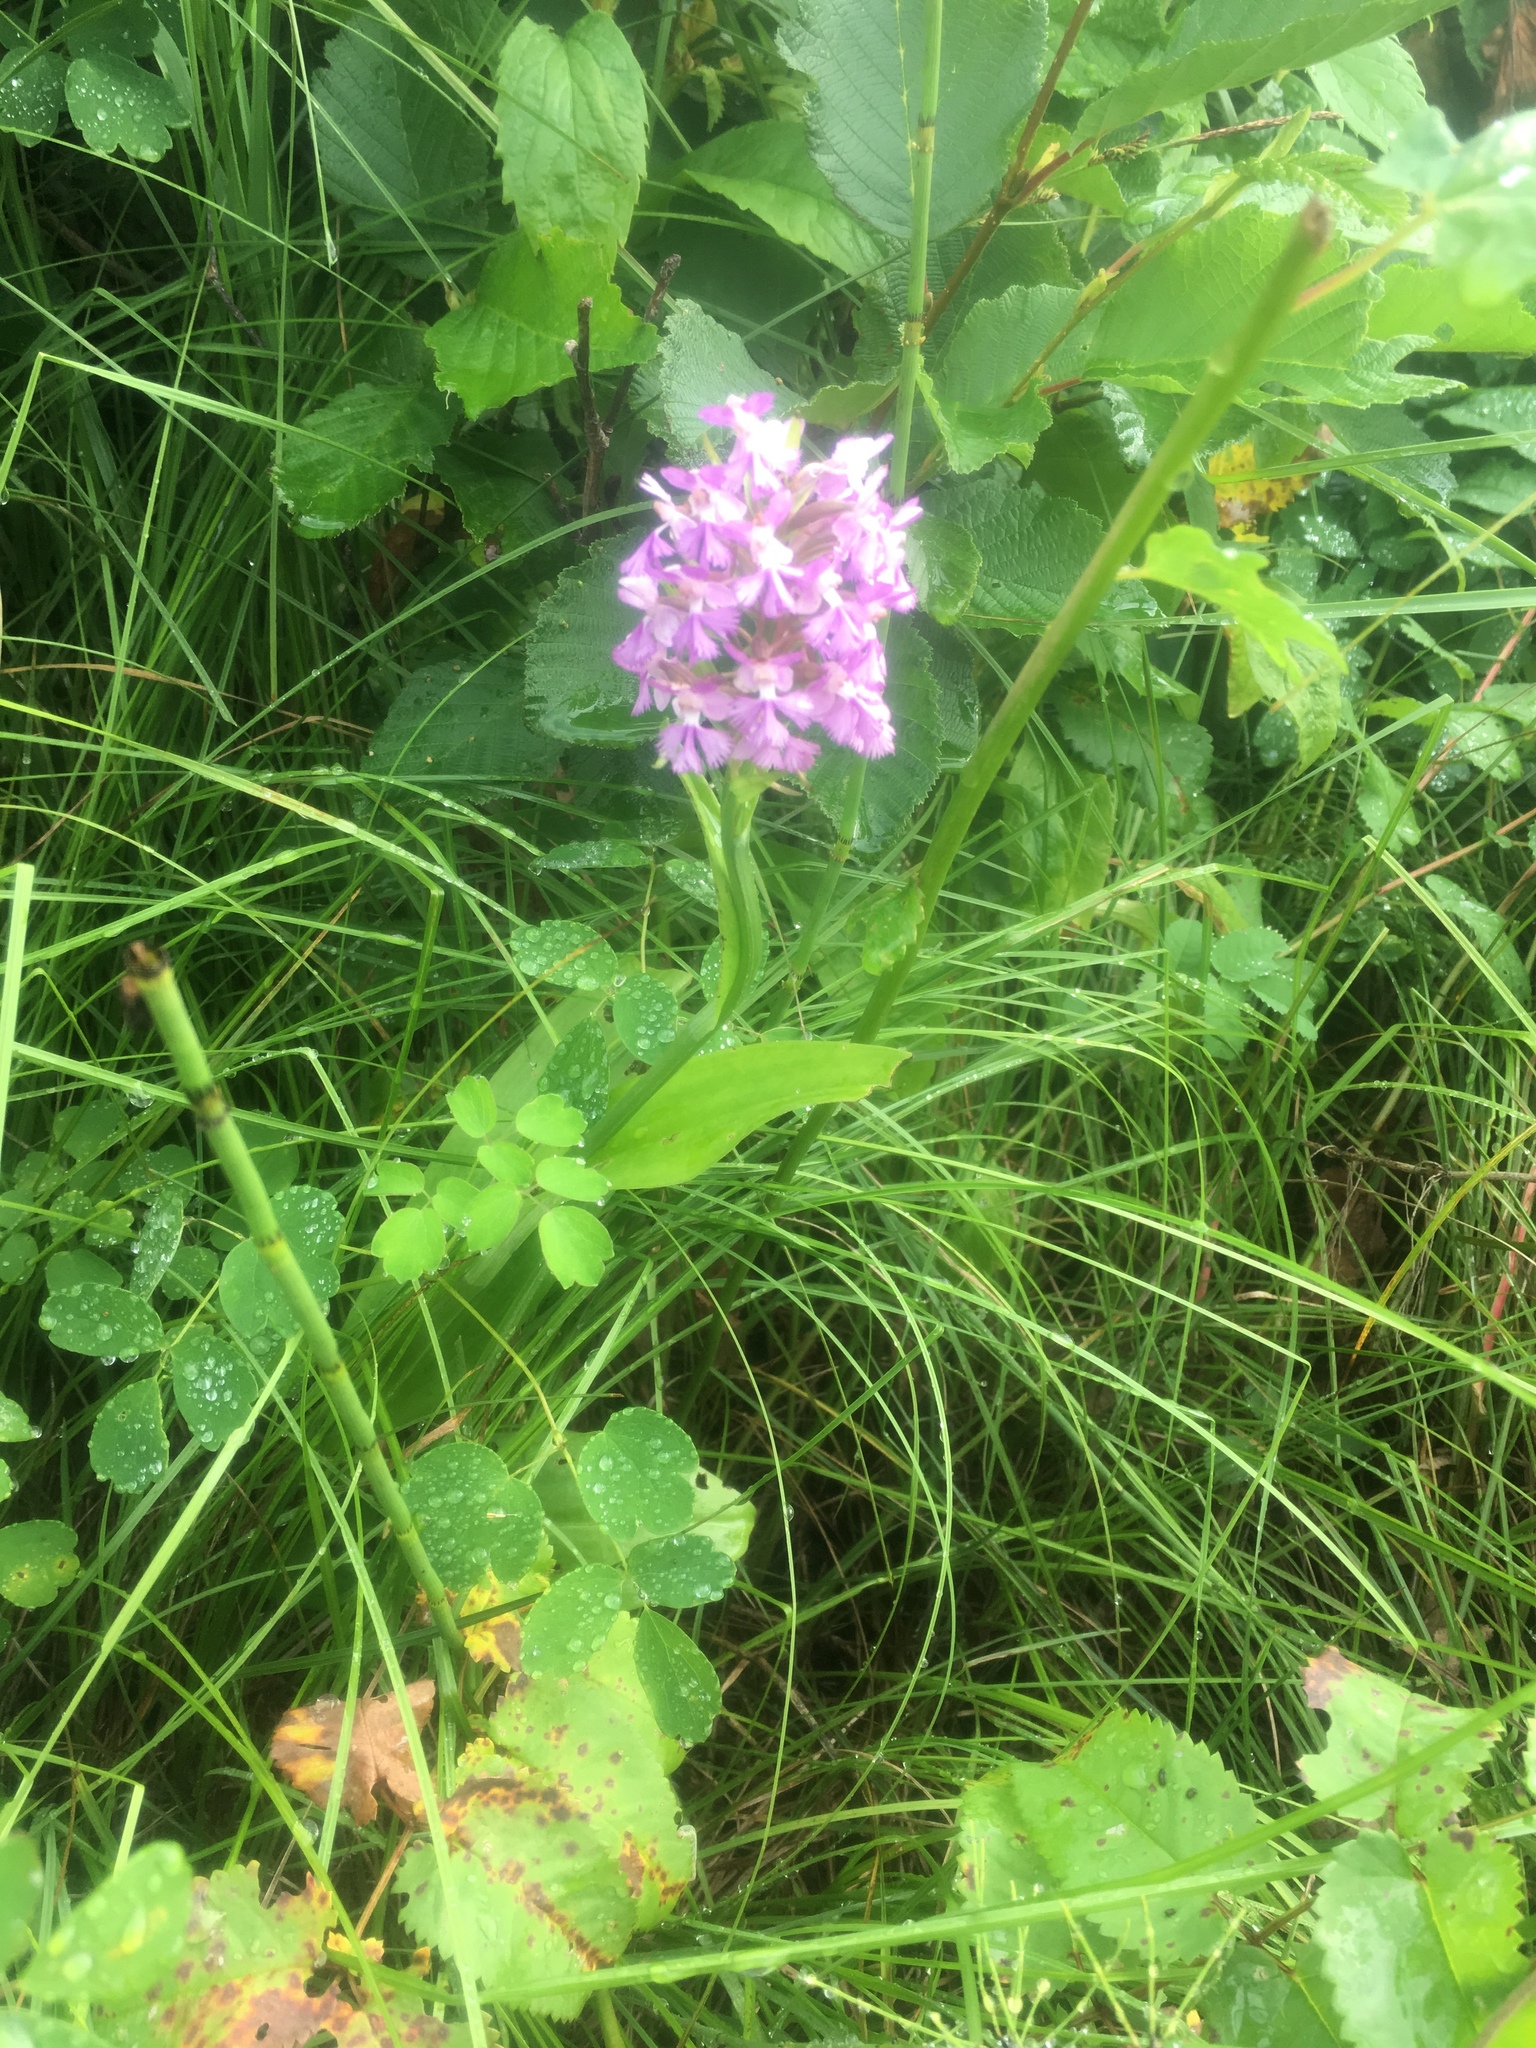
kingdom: Plantae
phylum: Tracheophyta
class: Liliopsida
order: Asparagales
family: Orchidaceae
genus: Platanthera
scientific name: Platanthera psycodes
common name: Lesser purple fringed orchid
